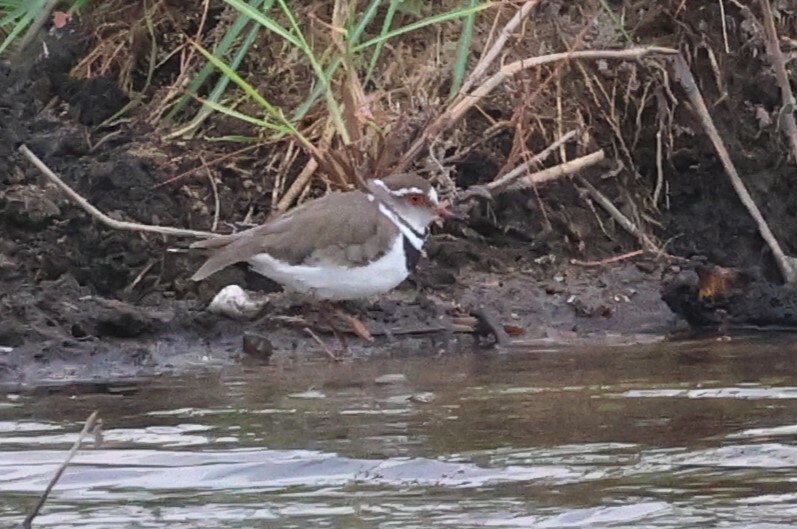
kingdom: Animalia
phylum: Chordata
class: Aves
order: Charadriiformes
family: Charadriidae
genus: Charadrius
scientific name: Charadrius tricollaris
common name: Three-banded plover
